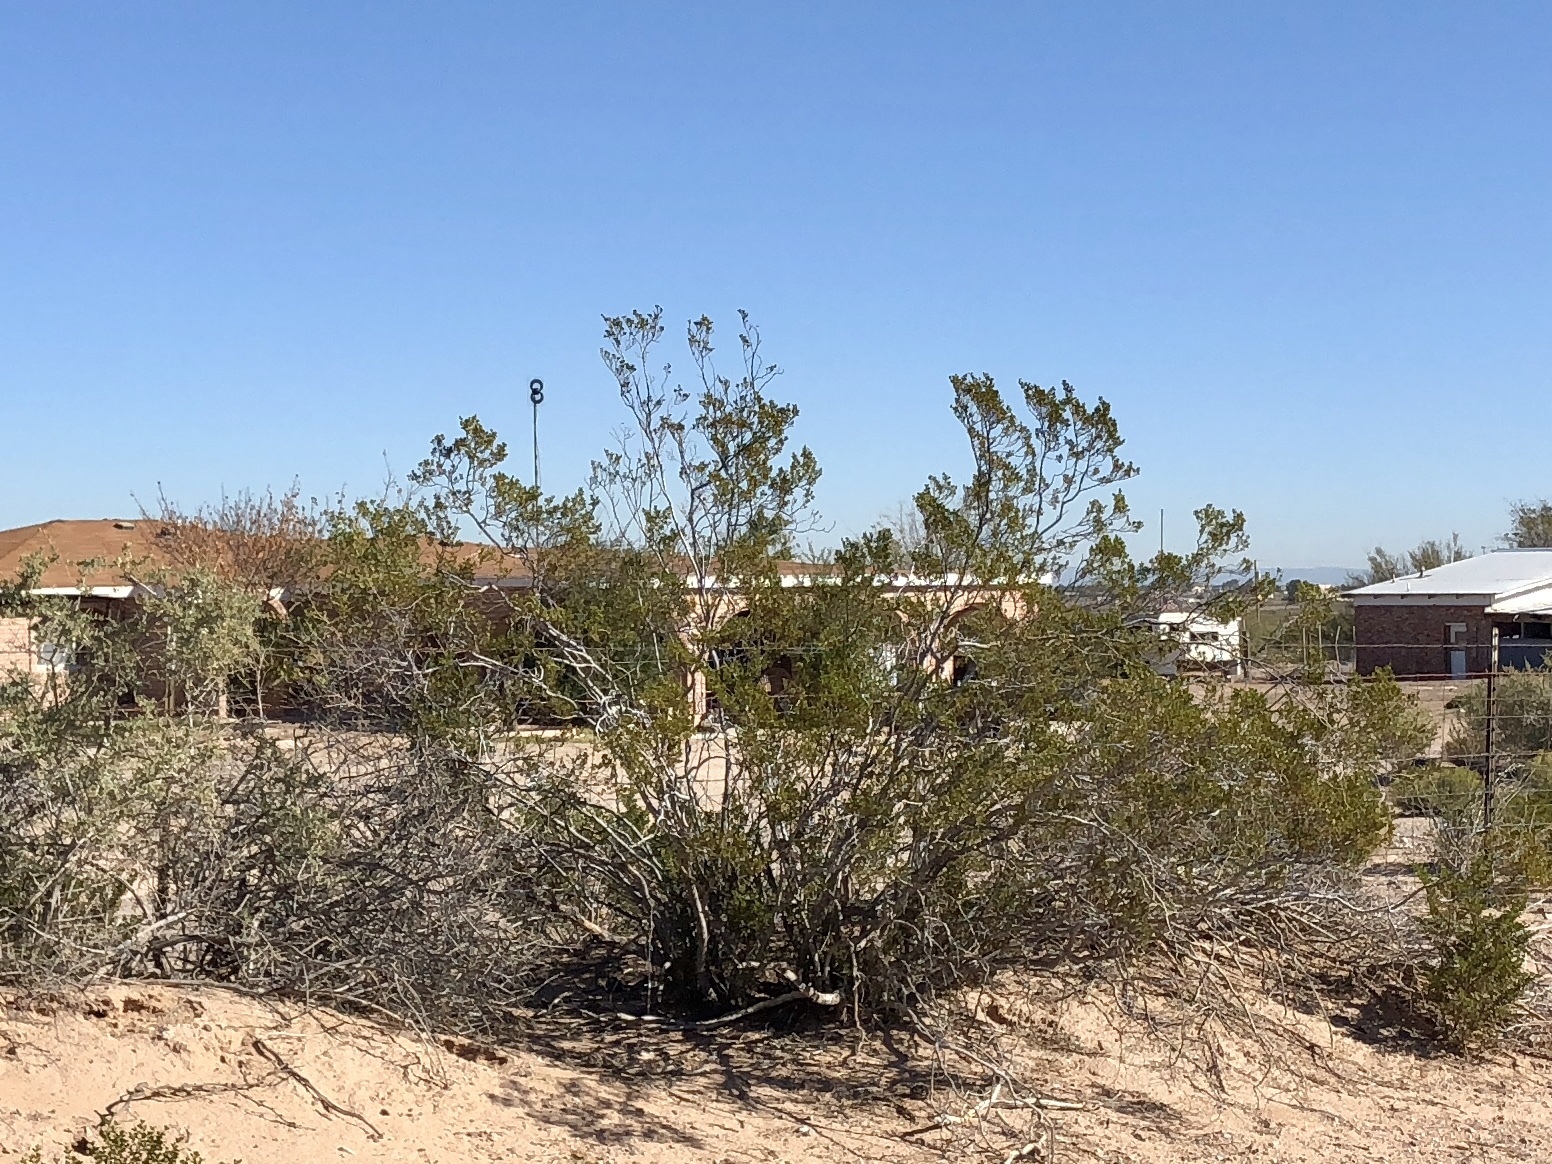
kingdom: Plantae
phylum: Tracheophyta
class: Magnoliopsida
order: Zygophyllales
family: Zygophyllaceae
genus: Larrea
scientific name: Larrea tridentata
